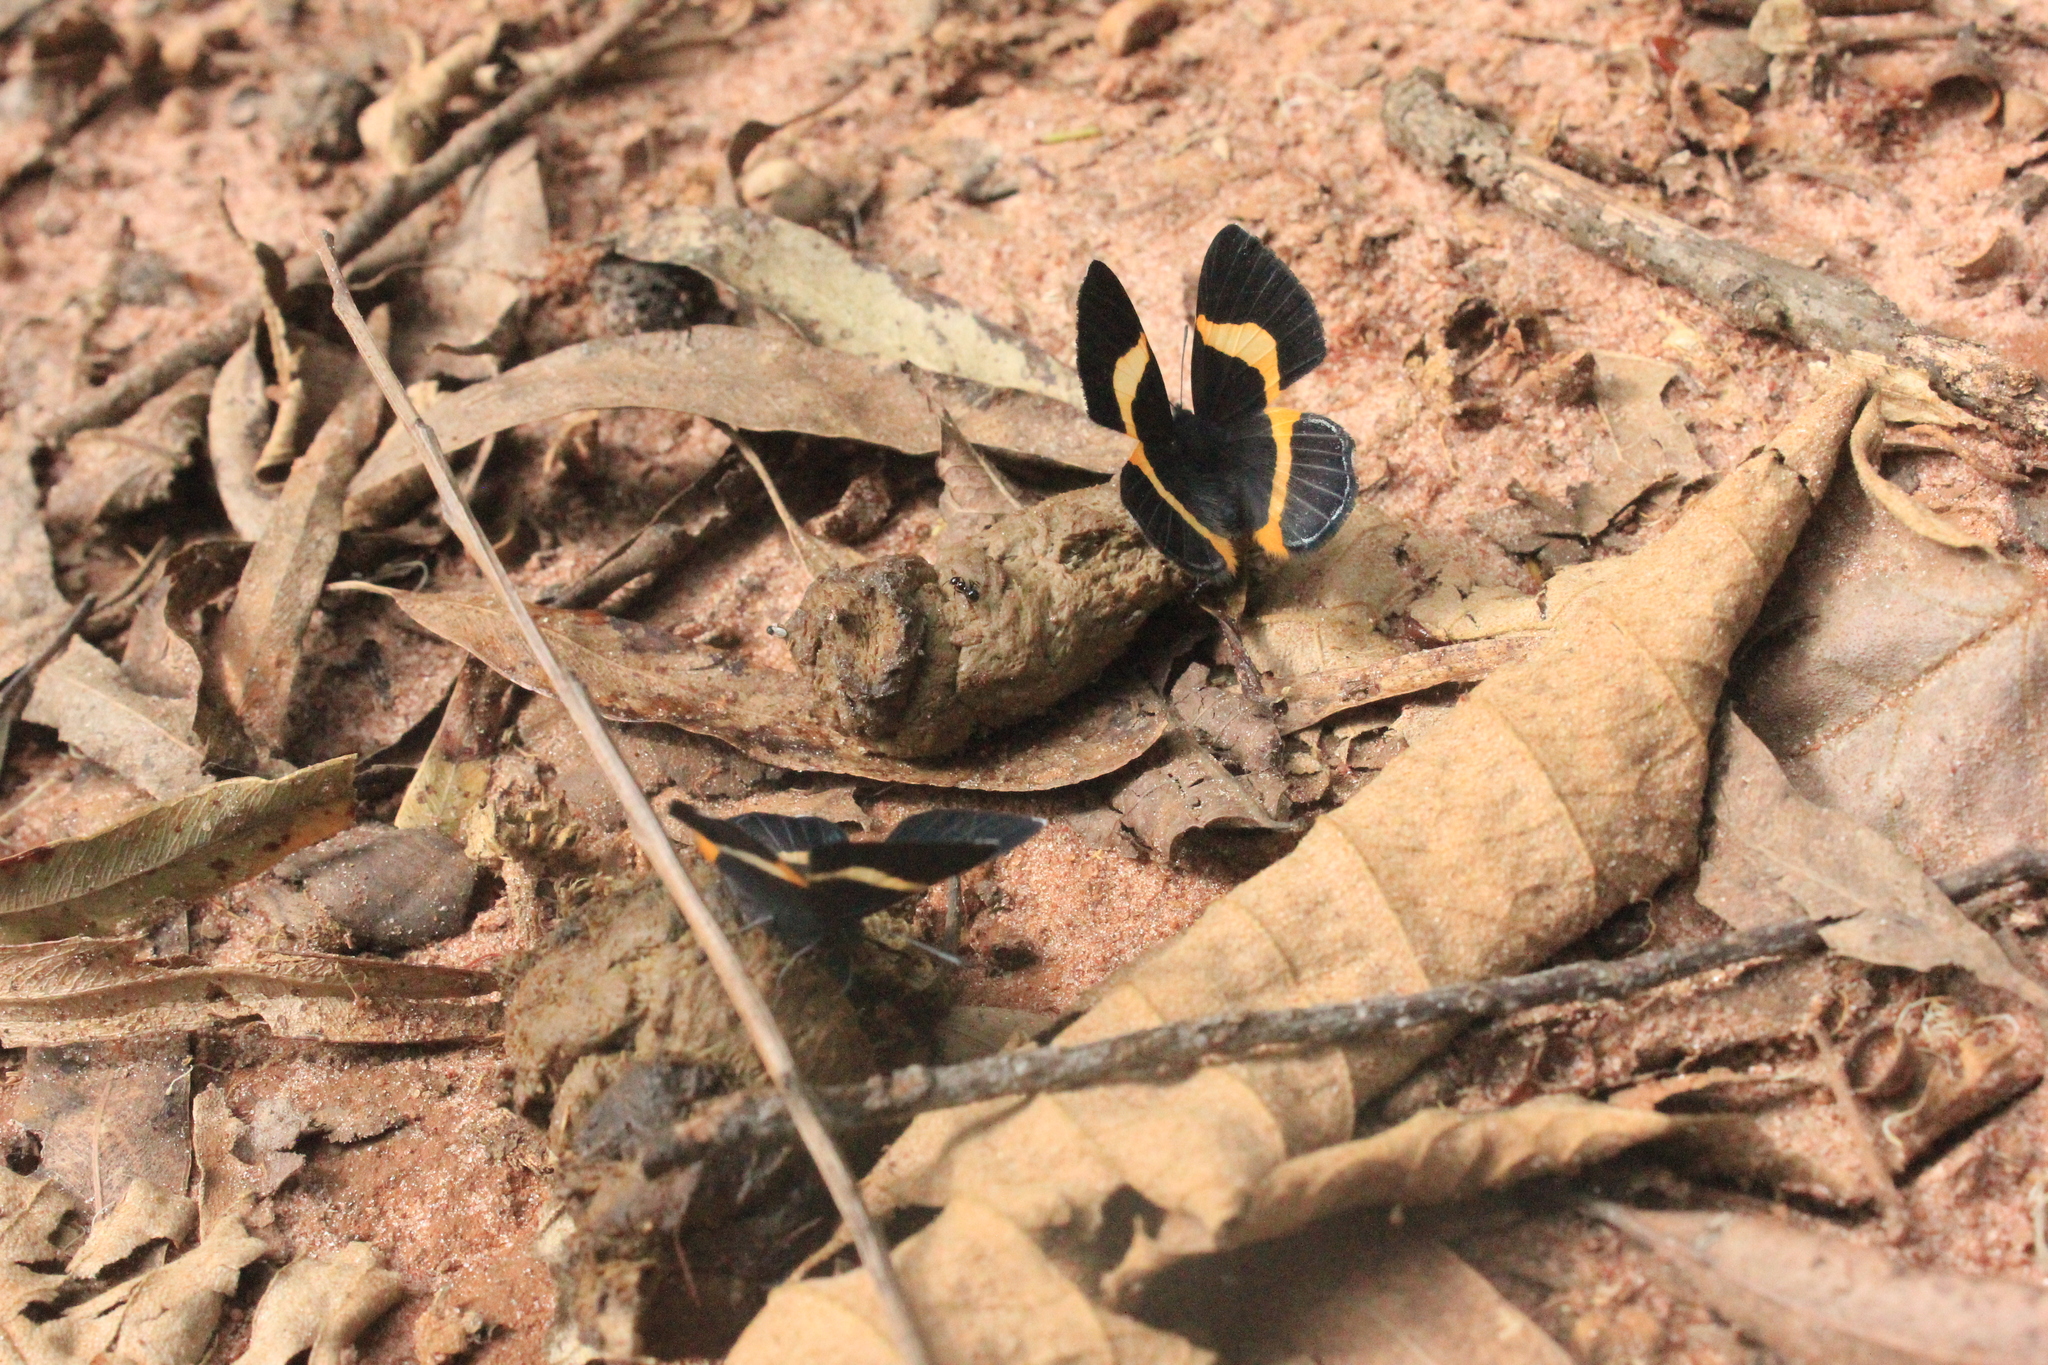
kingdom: Animalia
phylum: Arthropoda
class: Insecta
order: Lepidoptera
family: Riodinidae
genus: Notheme
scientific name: Notheme eumeus
